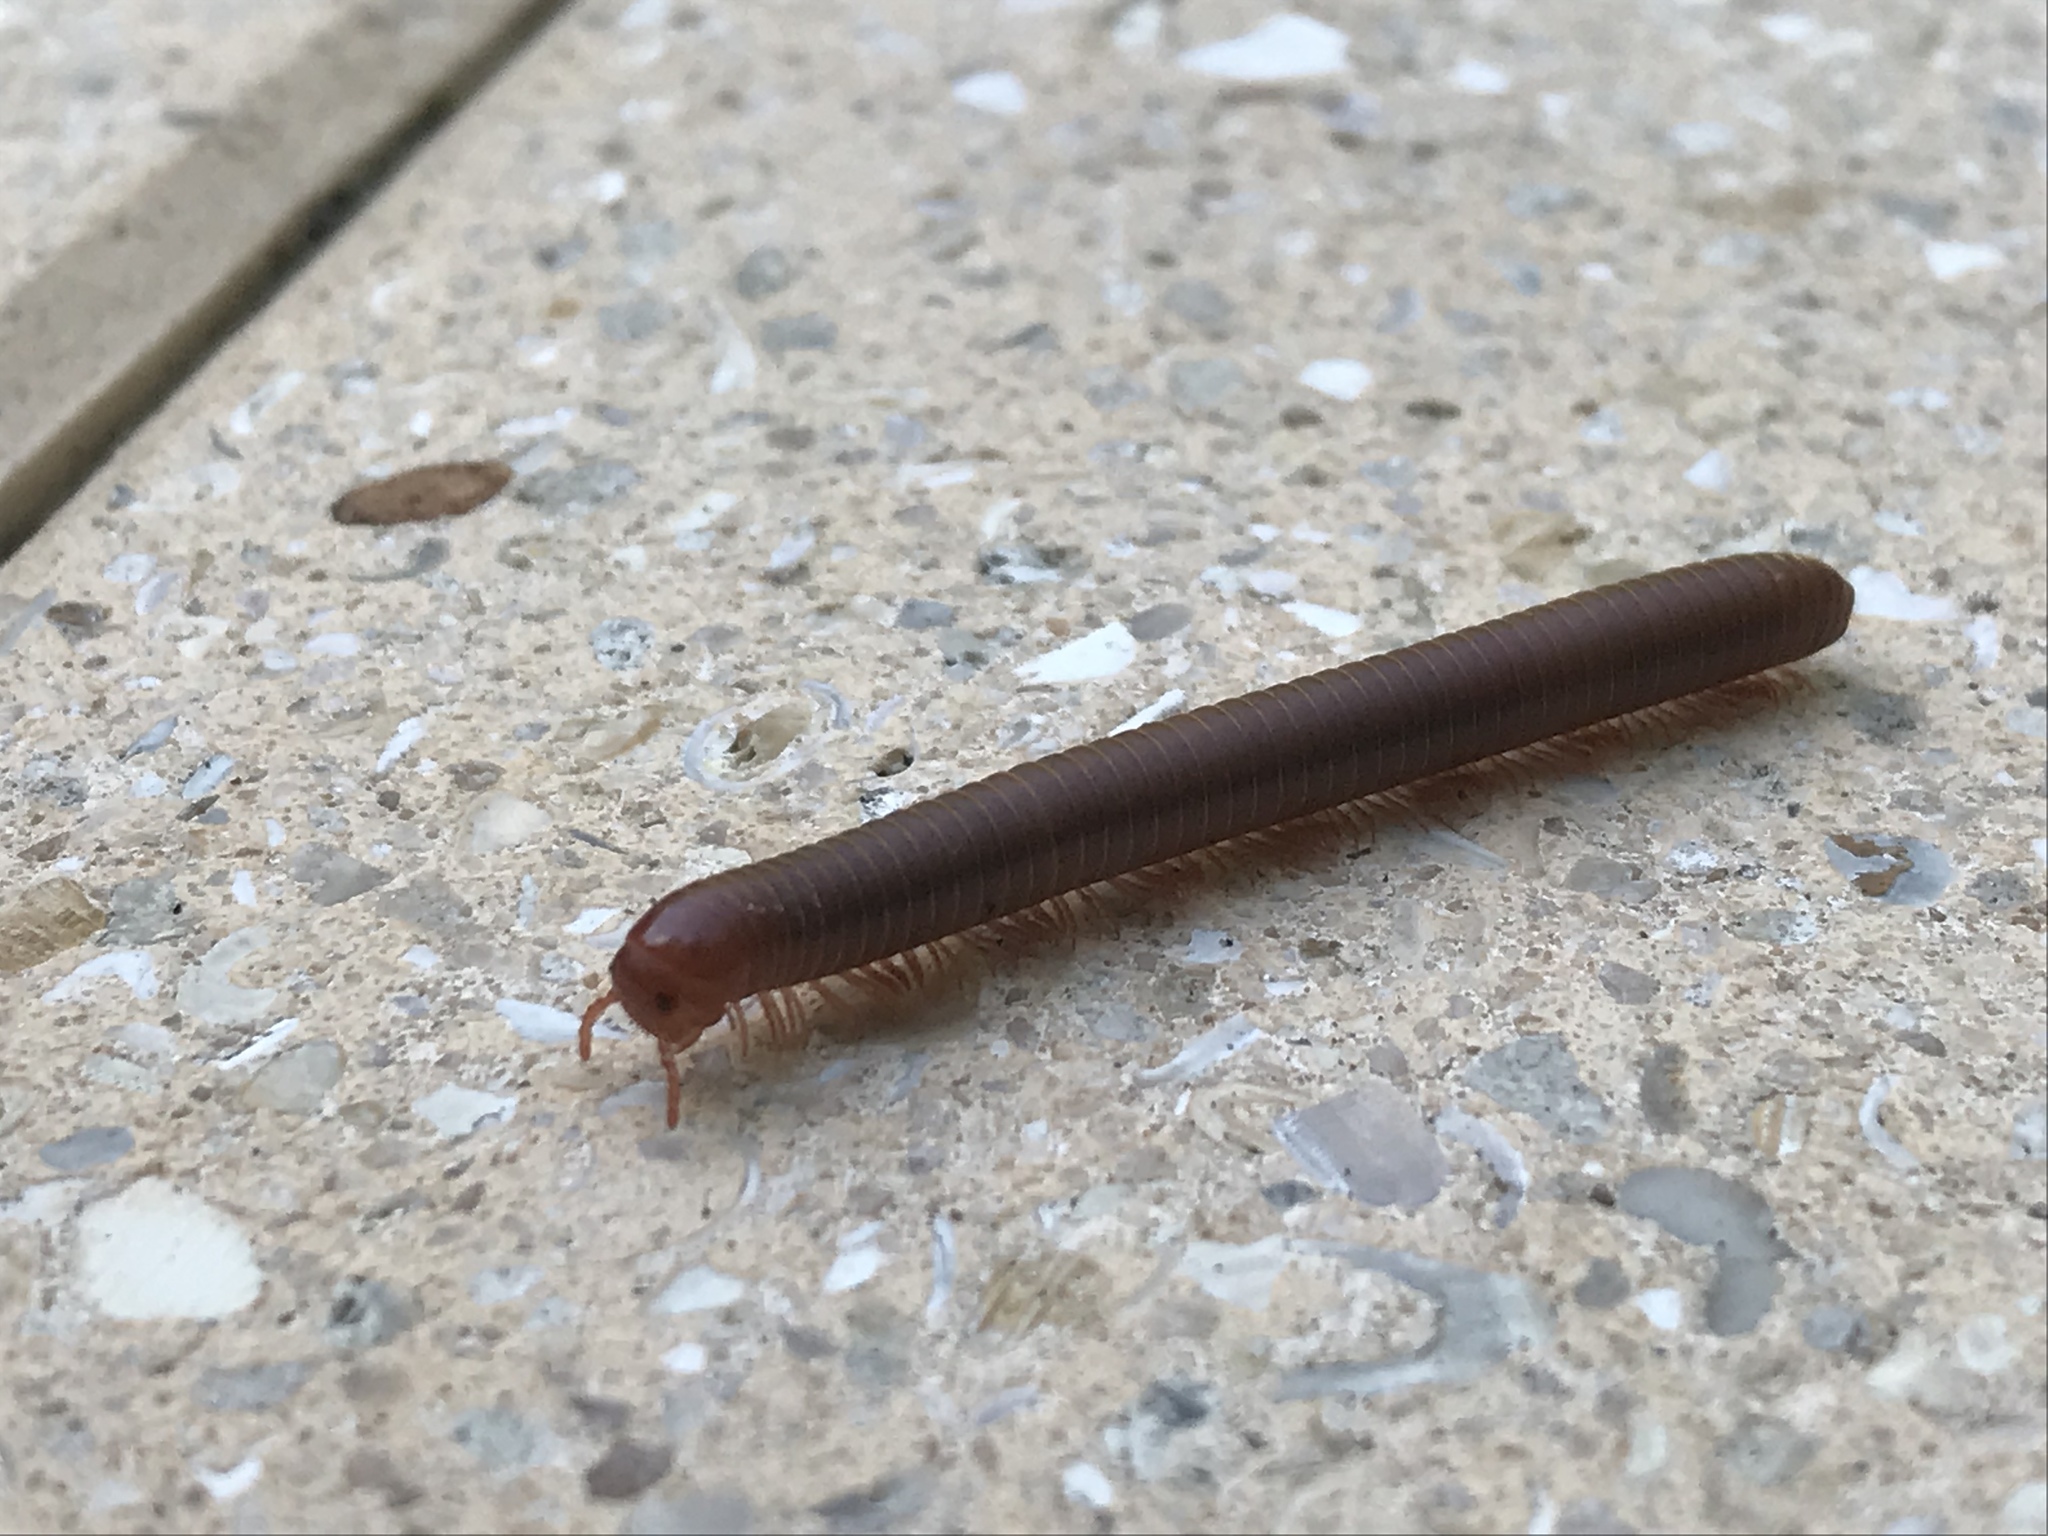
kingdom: Animalia
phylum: Arthropoda
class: Diplopoda
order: Spirobolida
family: Pachybolidae
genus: Trigoniulus
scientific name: Trigoniulus corallinus
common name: Millipede
